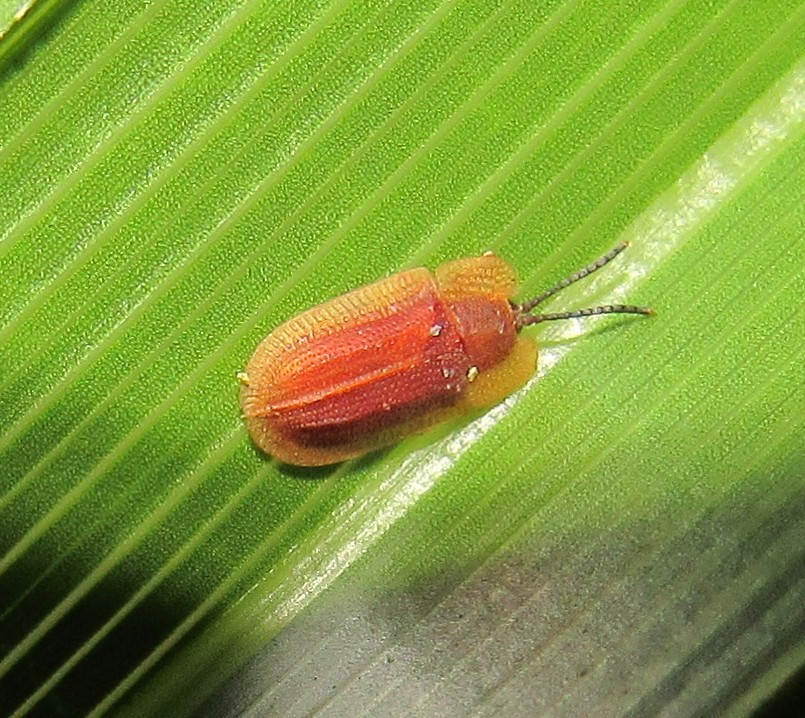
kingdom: Animalia
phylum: Arthropoda
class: Insecta
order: Coleoptera
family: Chrysomelidae
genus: Delocrania
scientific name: Delocrania cossyphoides
